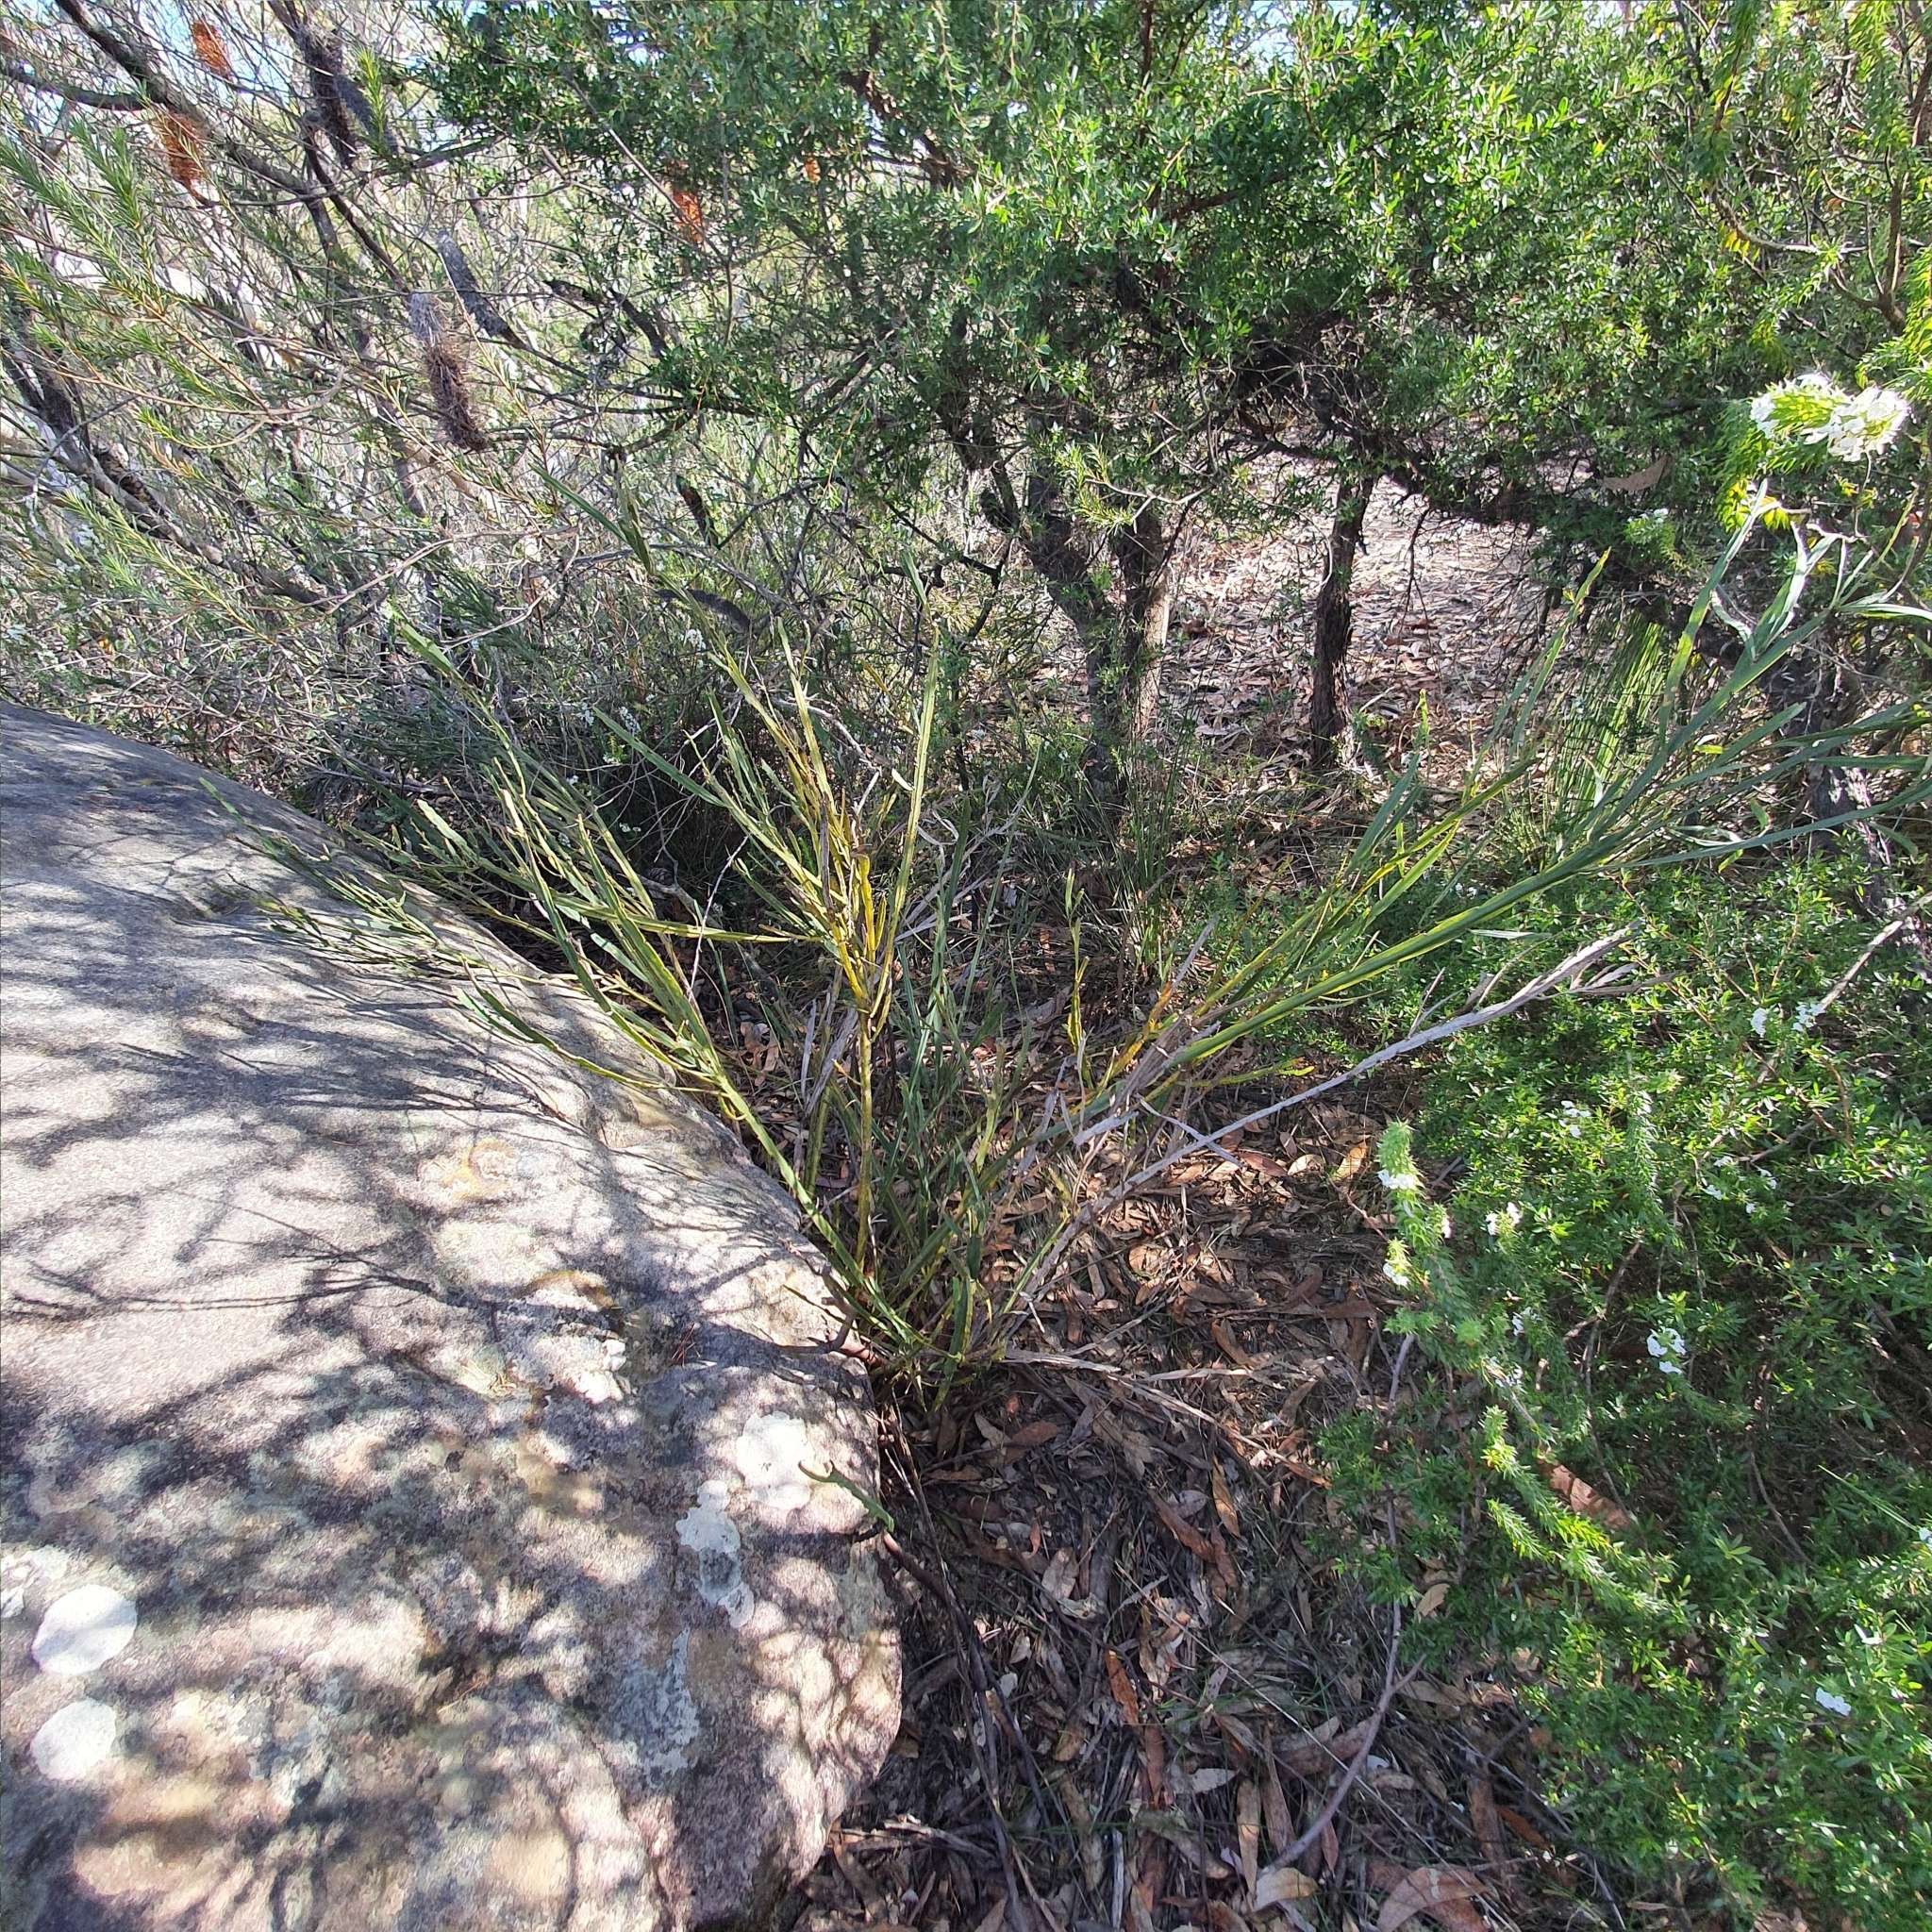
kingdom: Plantae
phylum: Tracheophyta
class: Magnoliopsida
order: Fabales
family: Fabaceae
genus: Bossiaea
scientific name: Bossiaea scolopendria
